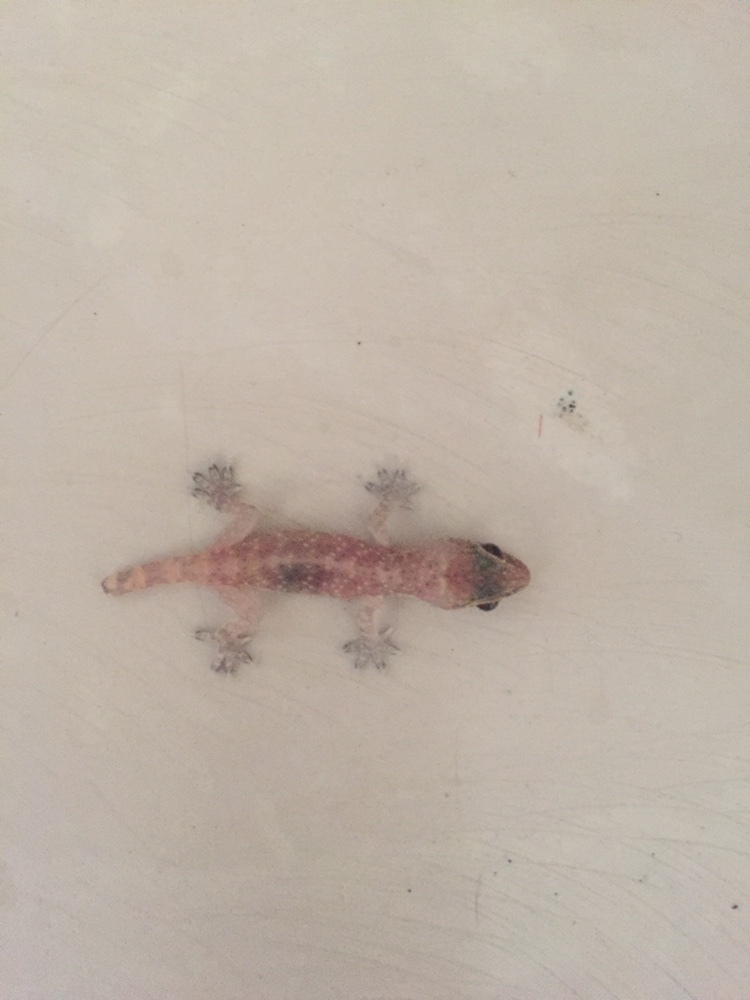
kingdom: Animalia
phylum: Chordata
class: Squamata
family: Gekkonidae
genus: Hemidactylus
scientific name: Hemidactylus turcicus
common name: Turkish gecko
